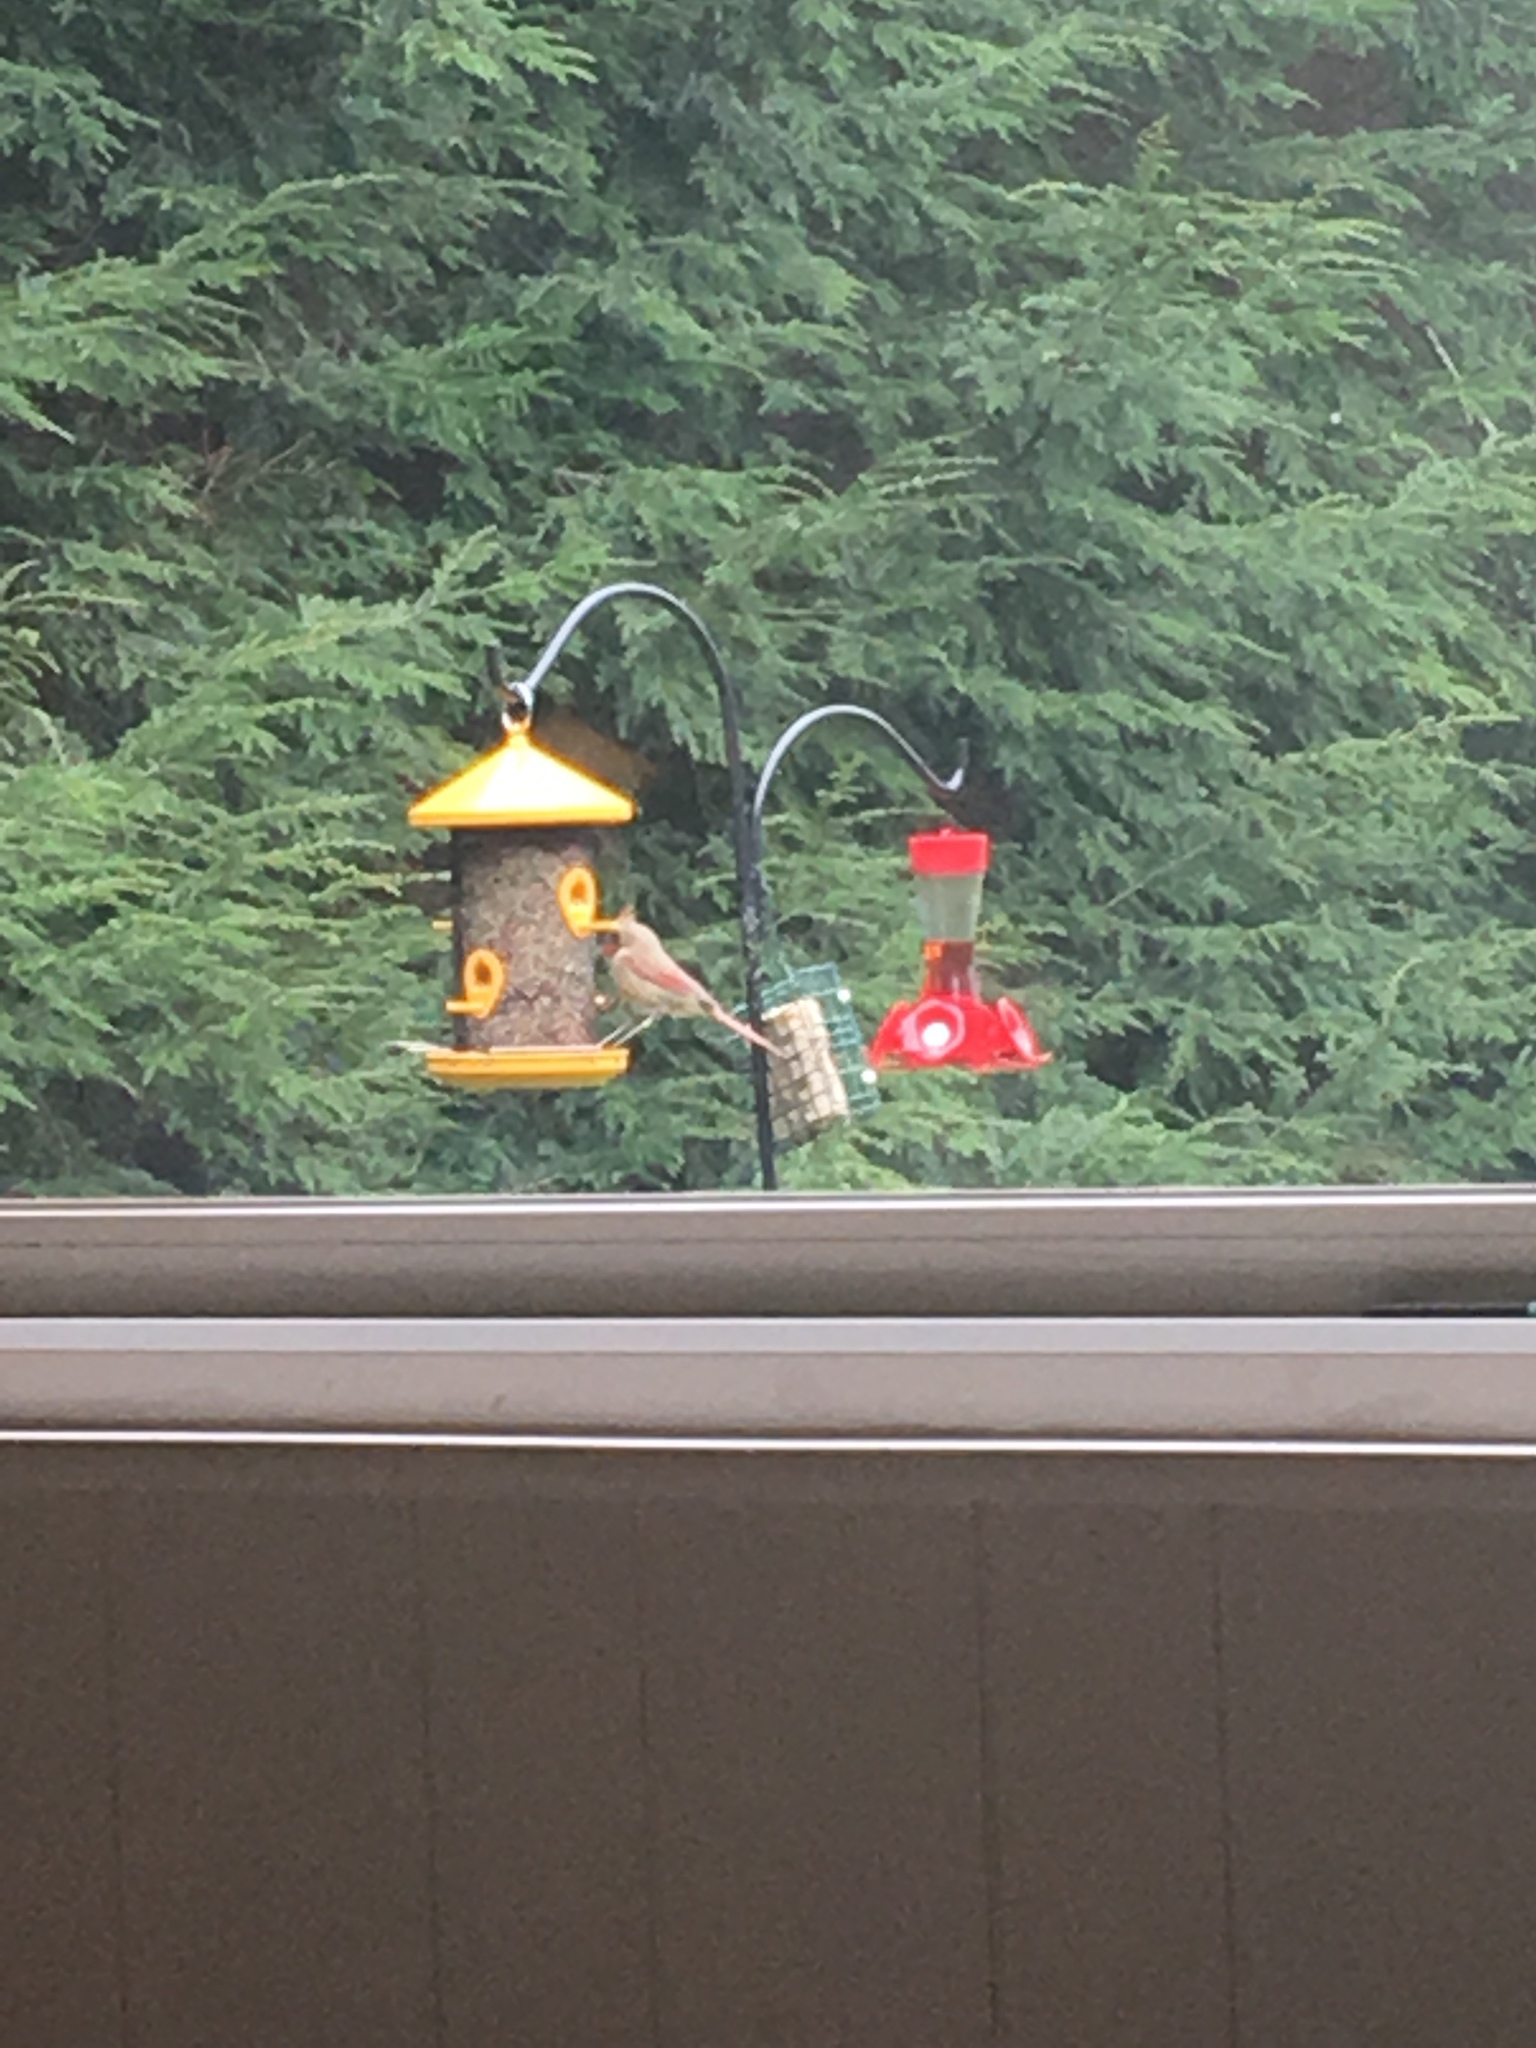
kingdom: Animalia
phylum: Chordata
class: Aves
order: Passeriformes
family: Cardinalidae
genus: Cardinalis
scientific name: Cardinalis cardinalis
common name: Northern cardinal
